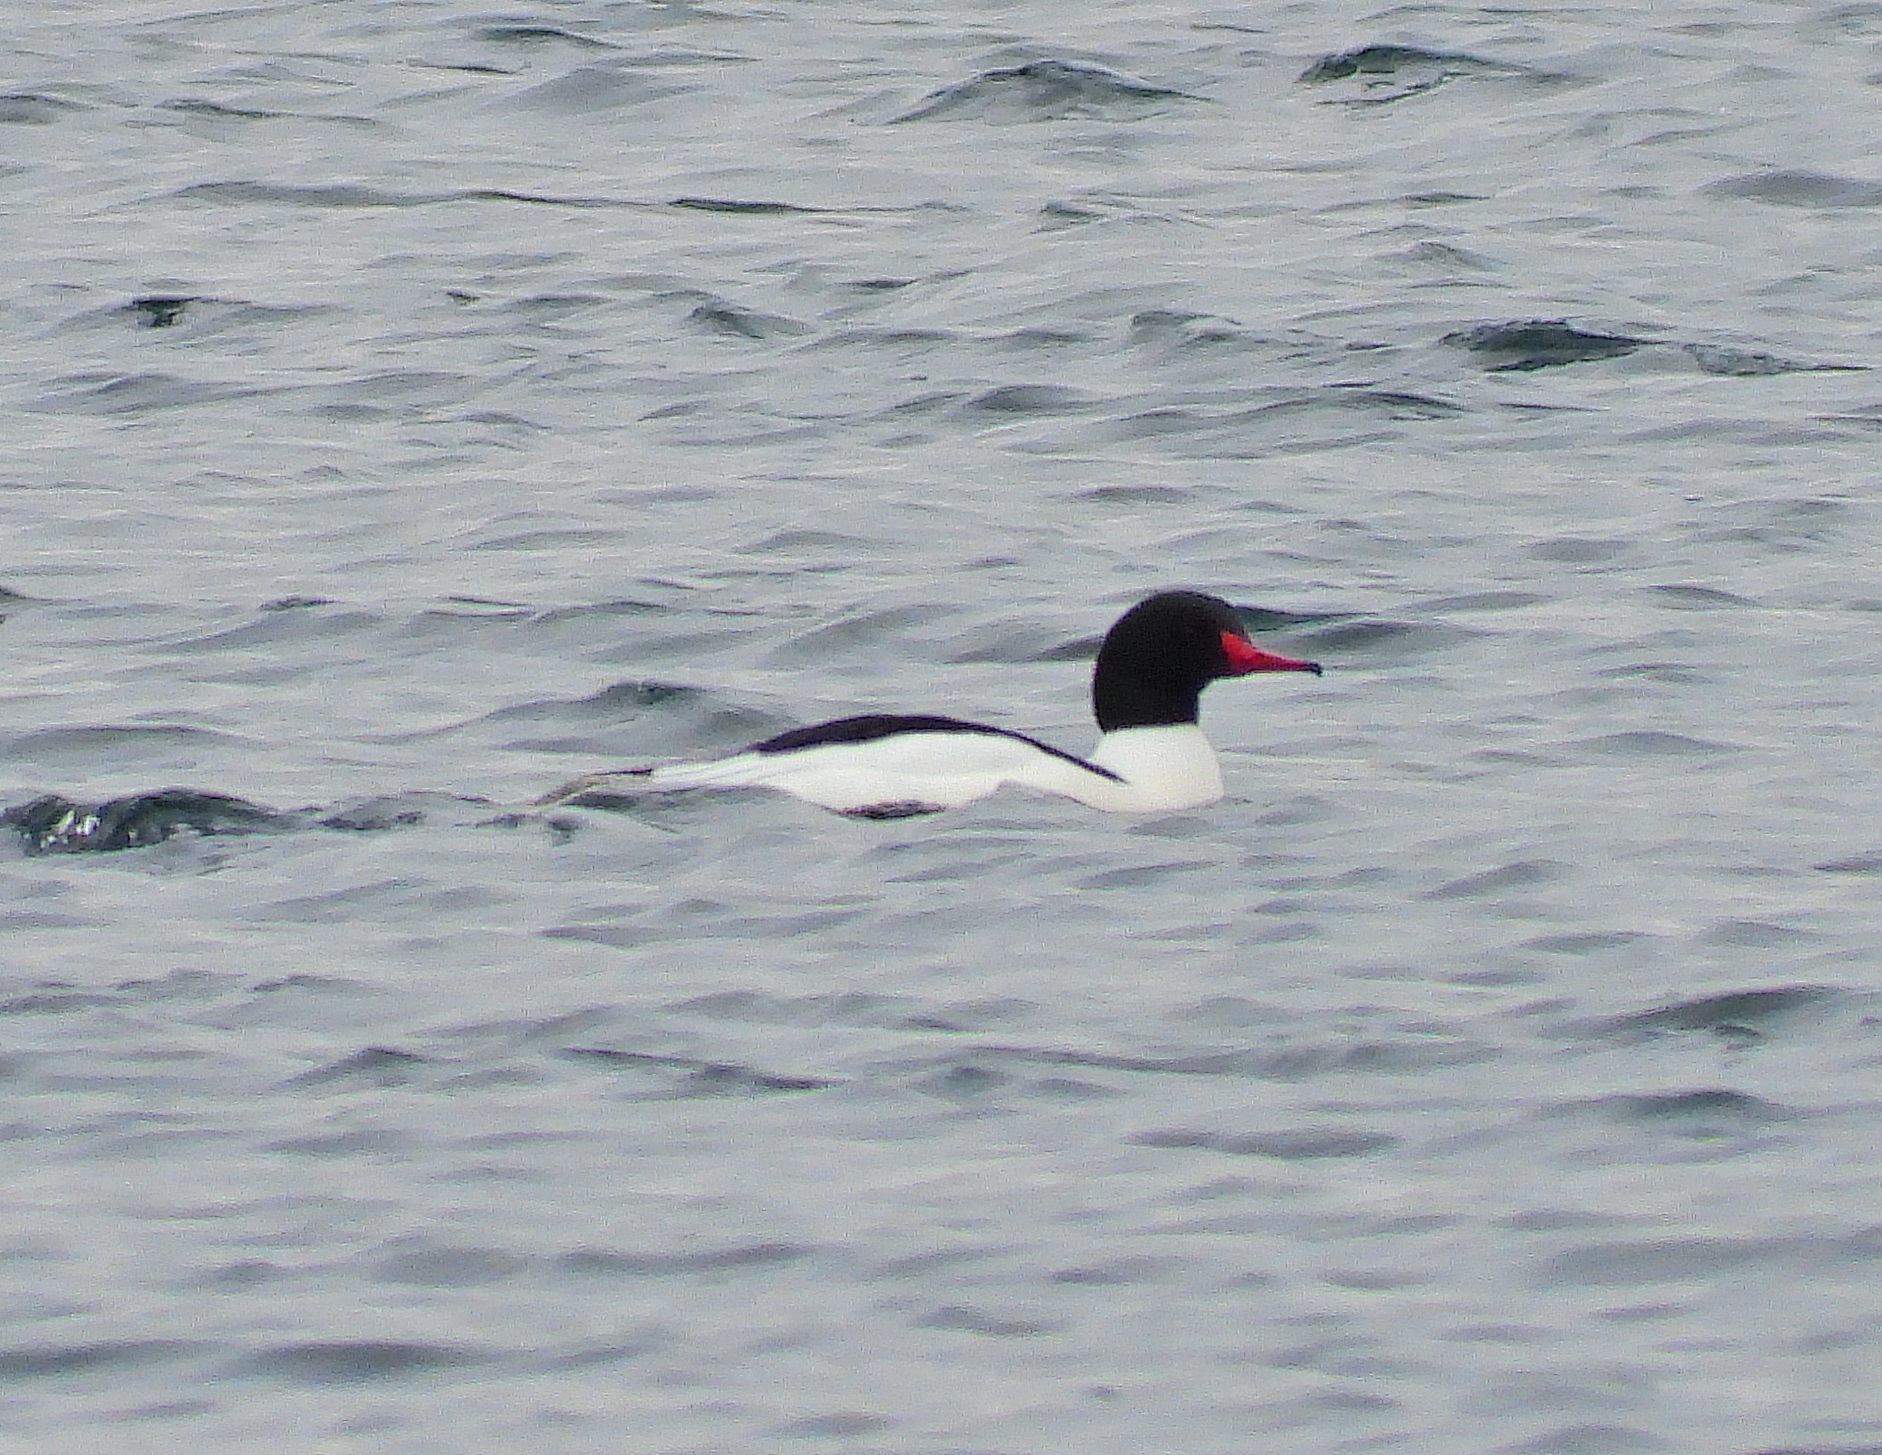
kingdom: Animalia
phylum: Chordata
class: Aves
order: Anseriformes
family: Anatidae
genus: Mergus
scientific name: Mergus merganser
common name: Common merganser
